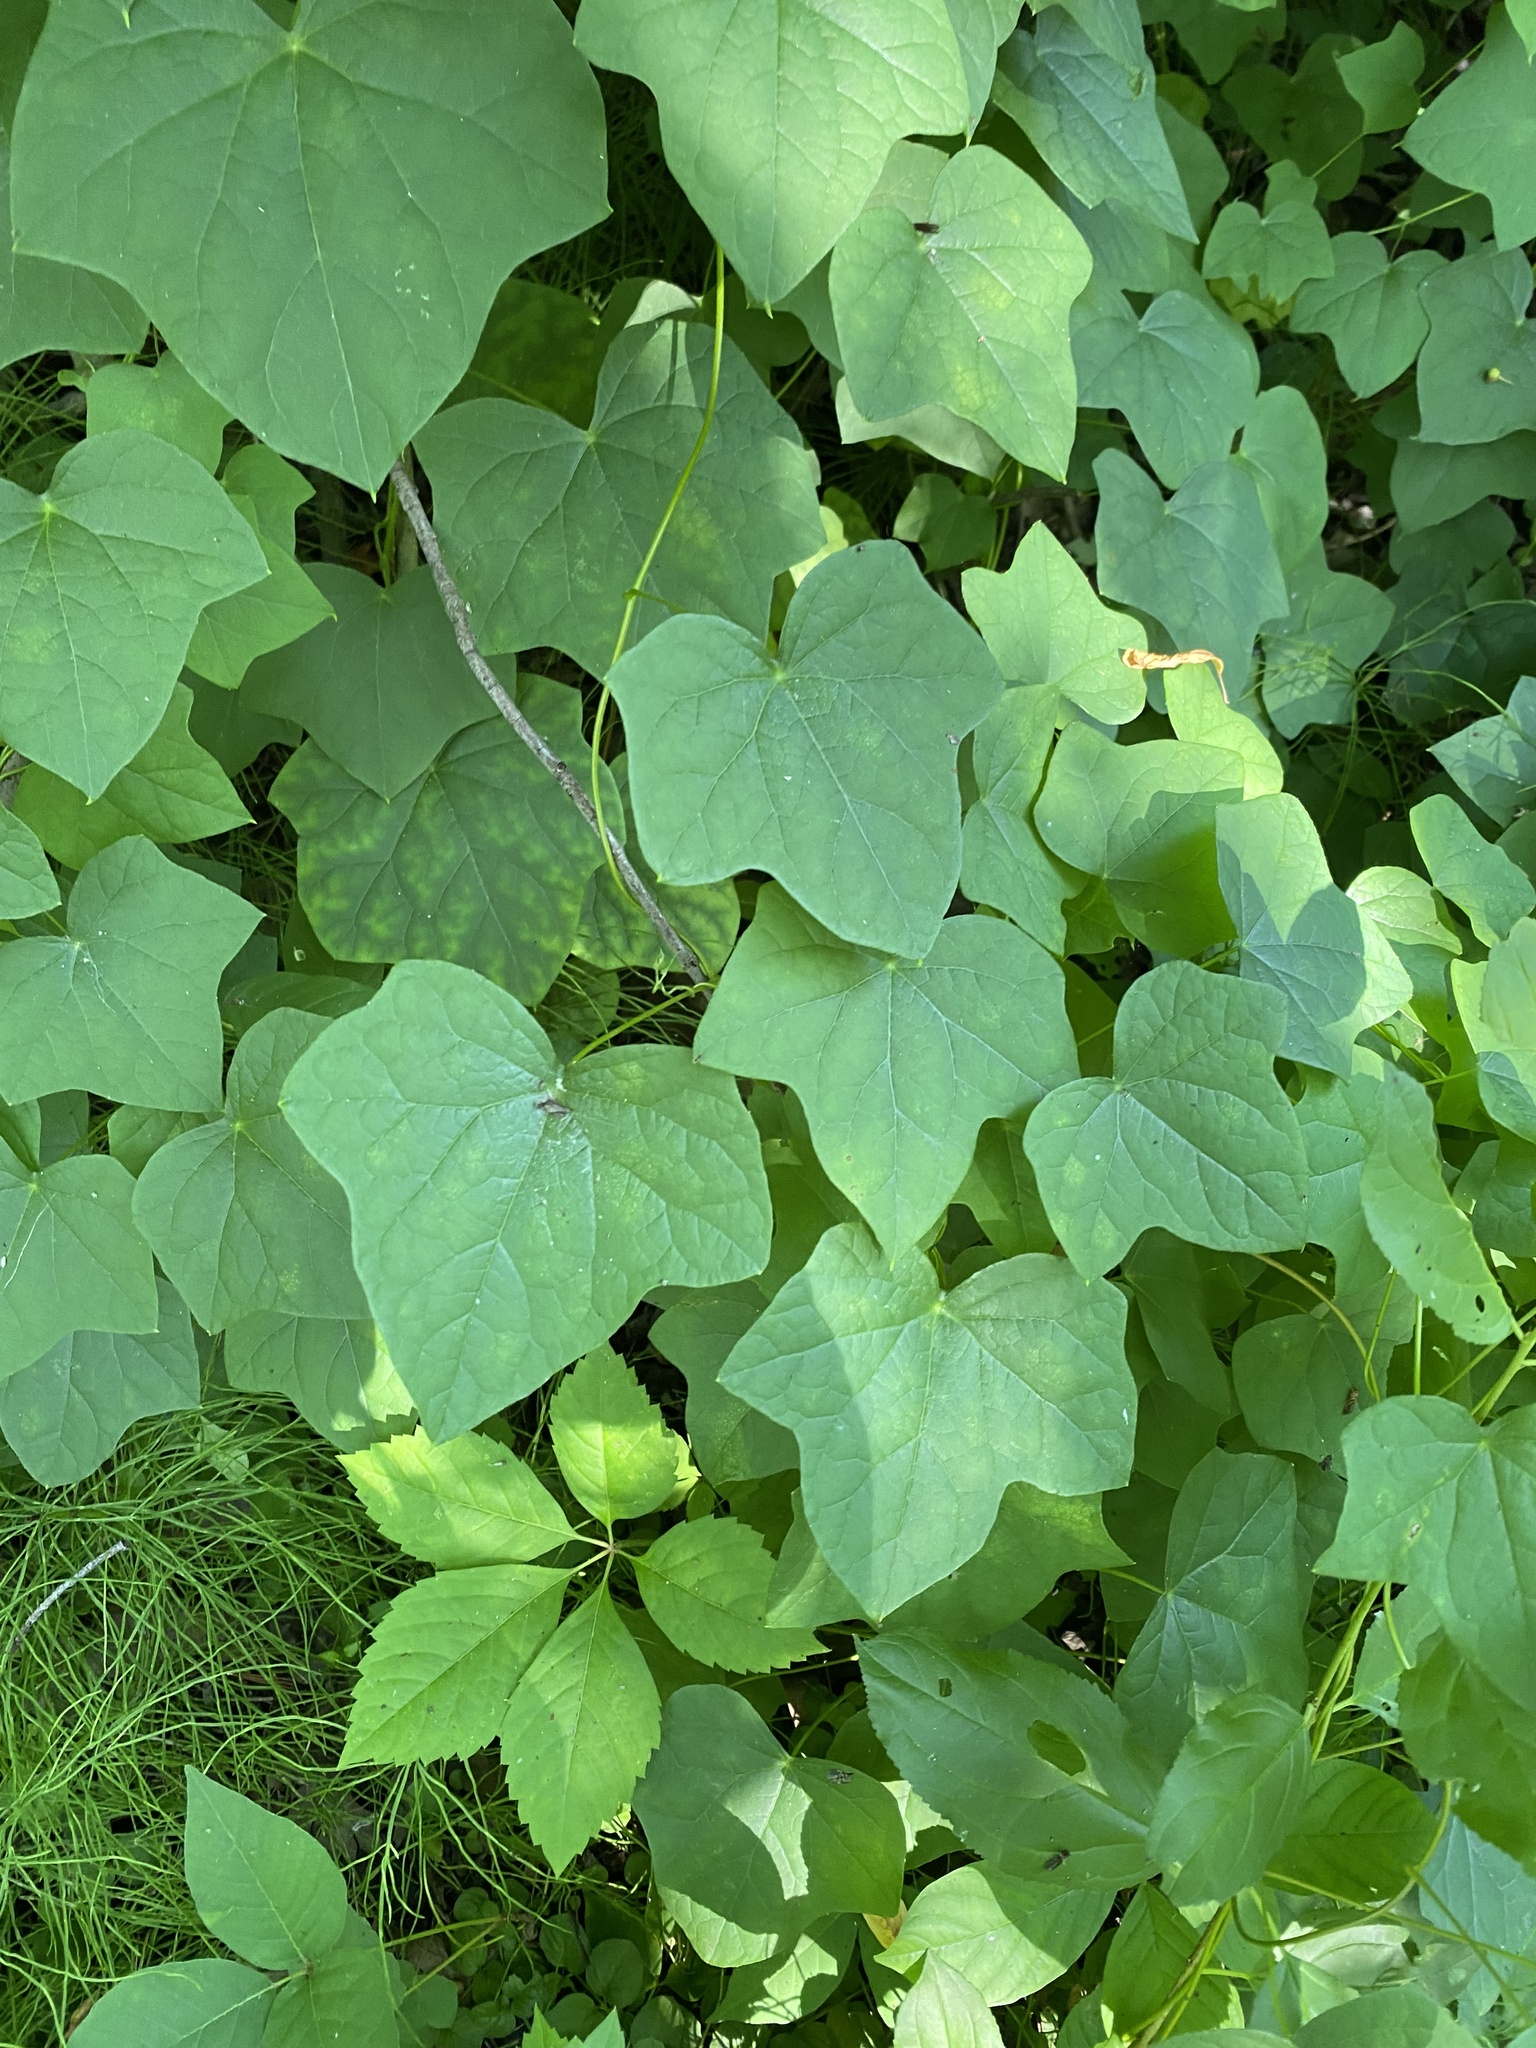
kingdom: Plantae
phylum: Tracheophyta
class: Magnoliopsida
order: Ranunculales
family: Menispermaceae
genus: Menispermum
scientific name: Menispermum canadense
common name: Moonseed
